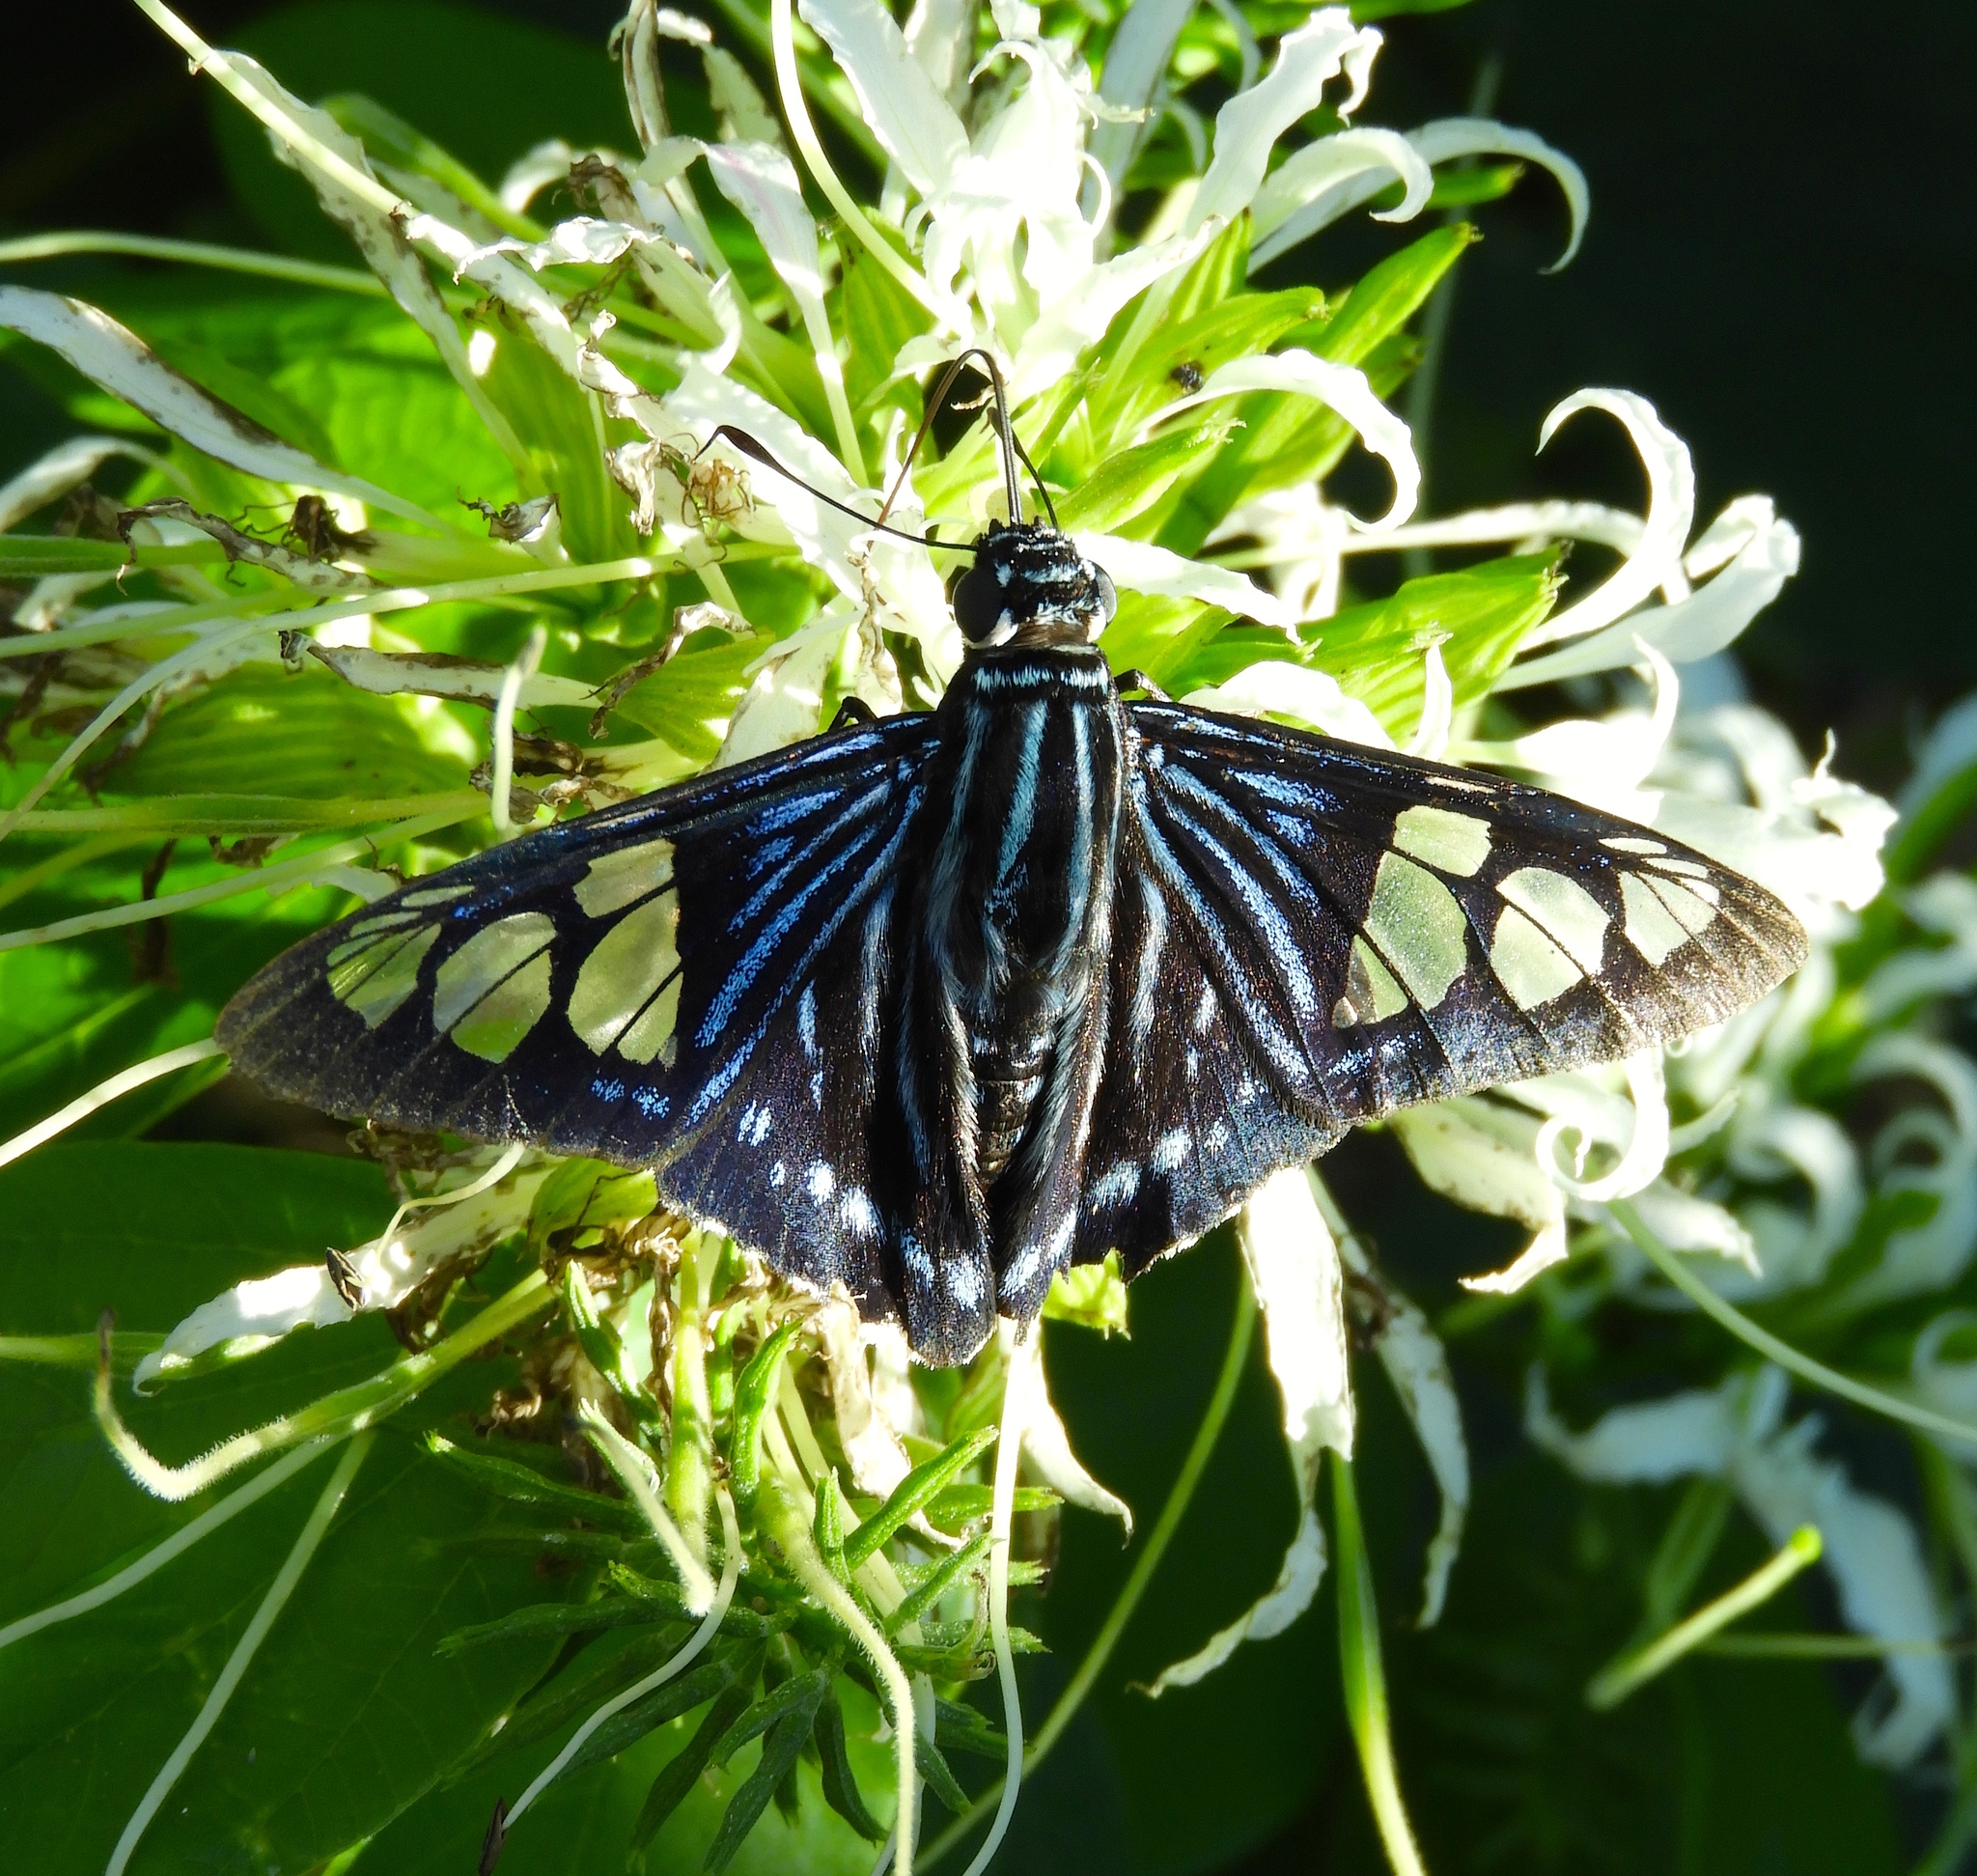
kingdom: Animalia
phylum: Arthropoda
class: Insecta
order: Lepidoptera
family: Hesperiidae
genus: Phocides
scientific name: Phocides pigmalion
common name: Mangrove skipper
